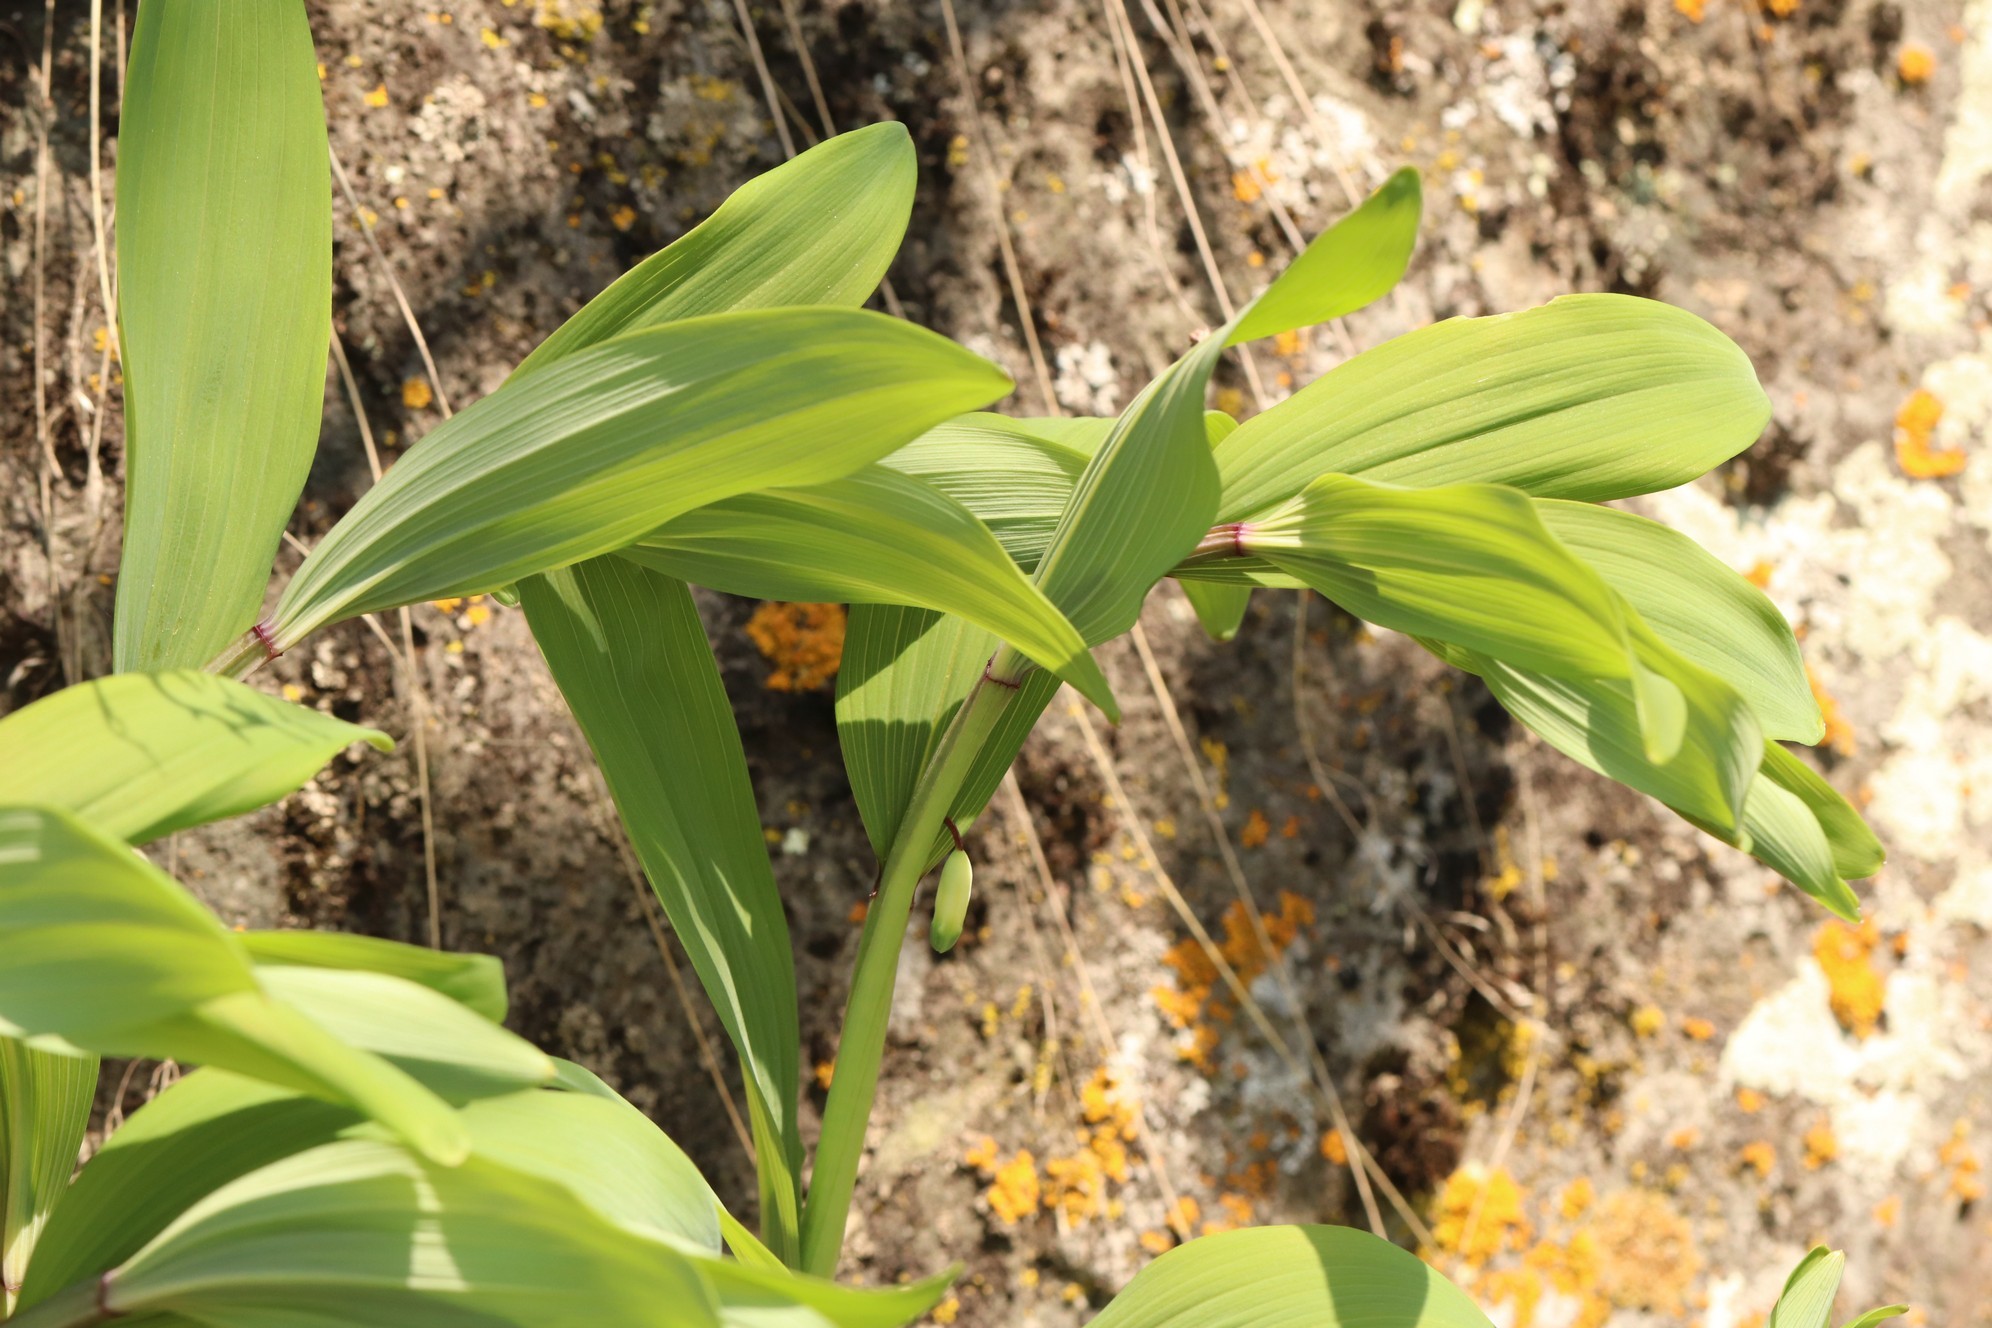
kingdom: Plantae
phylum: Tracheophyta
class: Liliopsida
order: Asparagales
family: Asparagaceae
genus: Polygonatum
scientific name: Polygonatum odoratum
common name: Angular solomon's-seal
